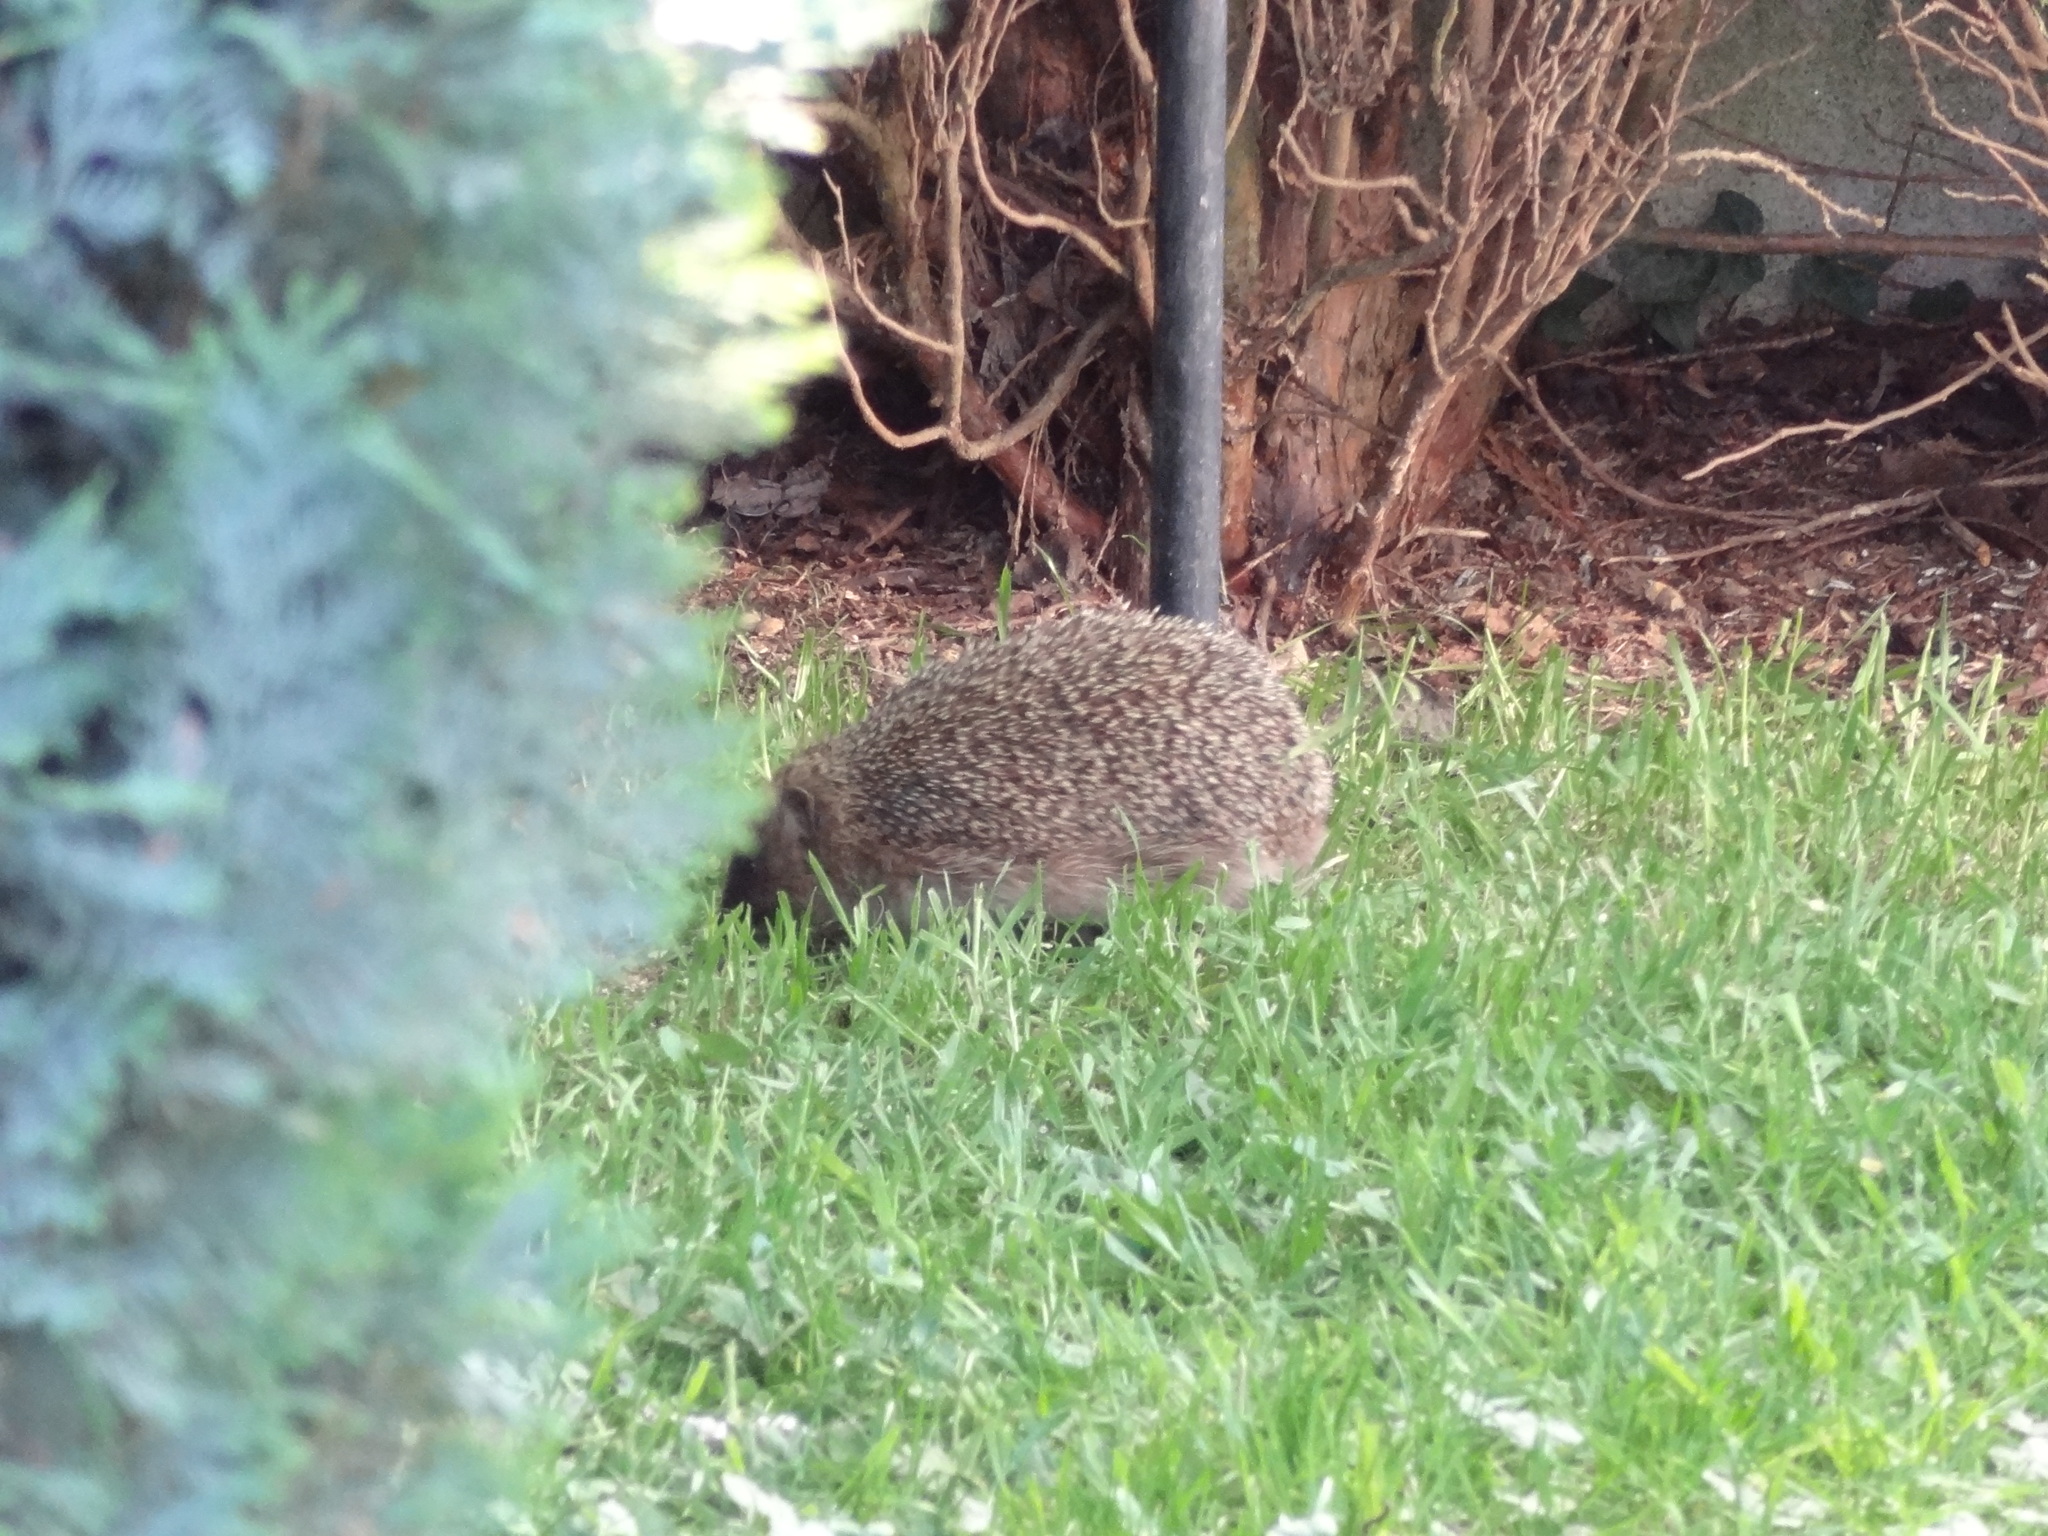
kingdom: Animalia
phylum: Chordata
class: Mammalia
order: Erinaceomorpha
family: Erinaceidae
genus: Erinaceus
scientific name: Erinaceus europaeus
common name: West european hedgehog
